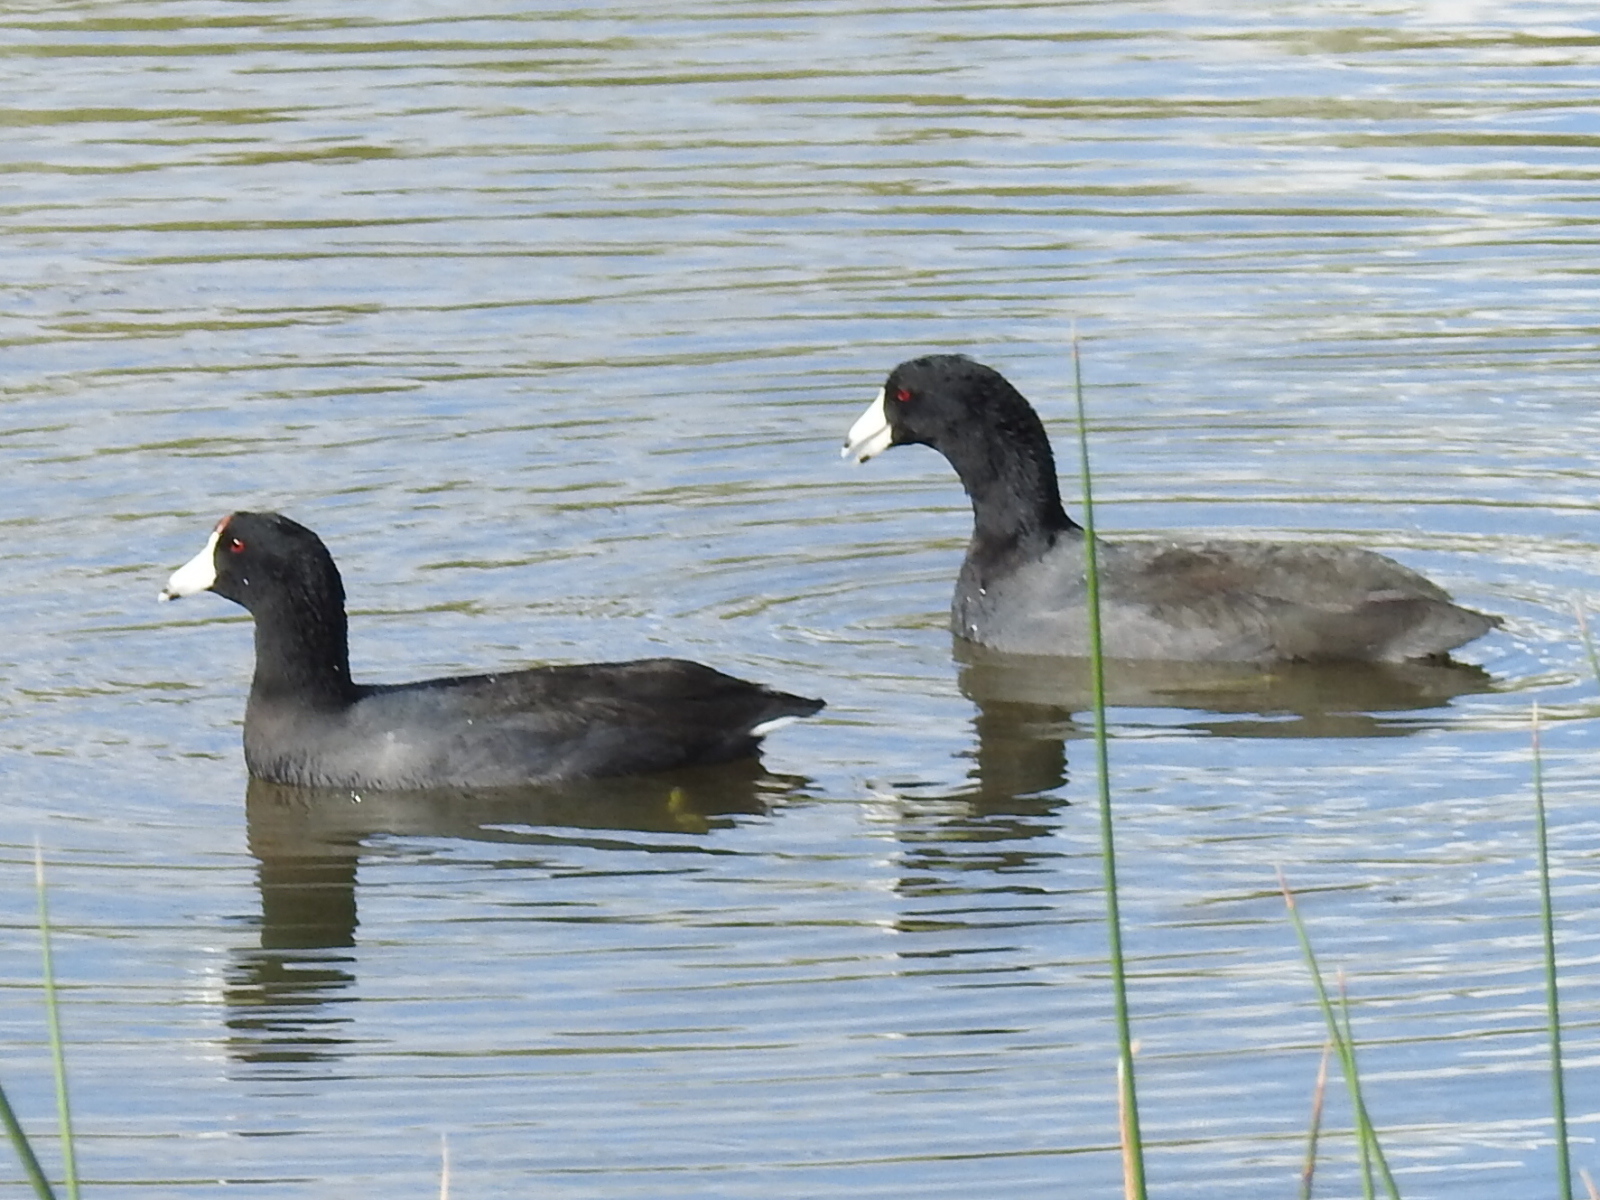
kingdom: Animalia
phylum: Chordata
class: Aves
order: Gruiformes
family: Rallidae
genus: Fulica
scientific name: Fulica americana
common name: American coot
